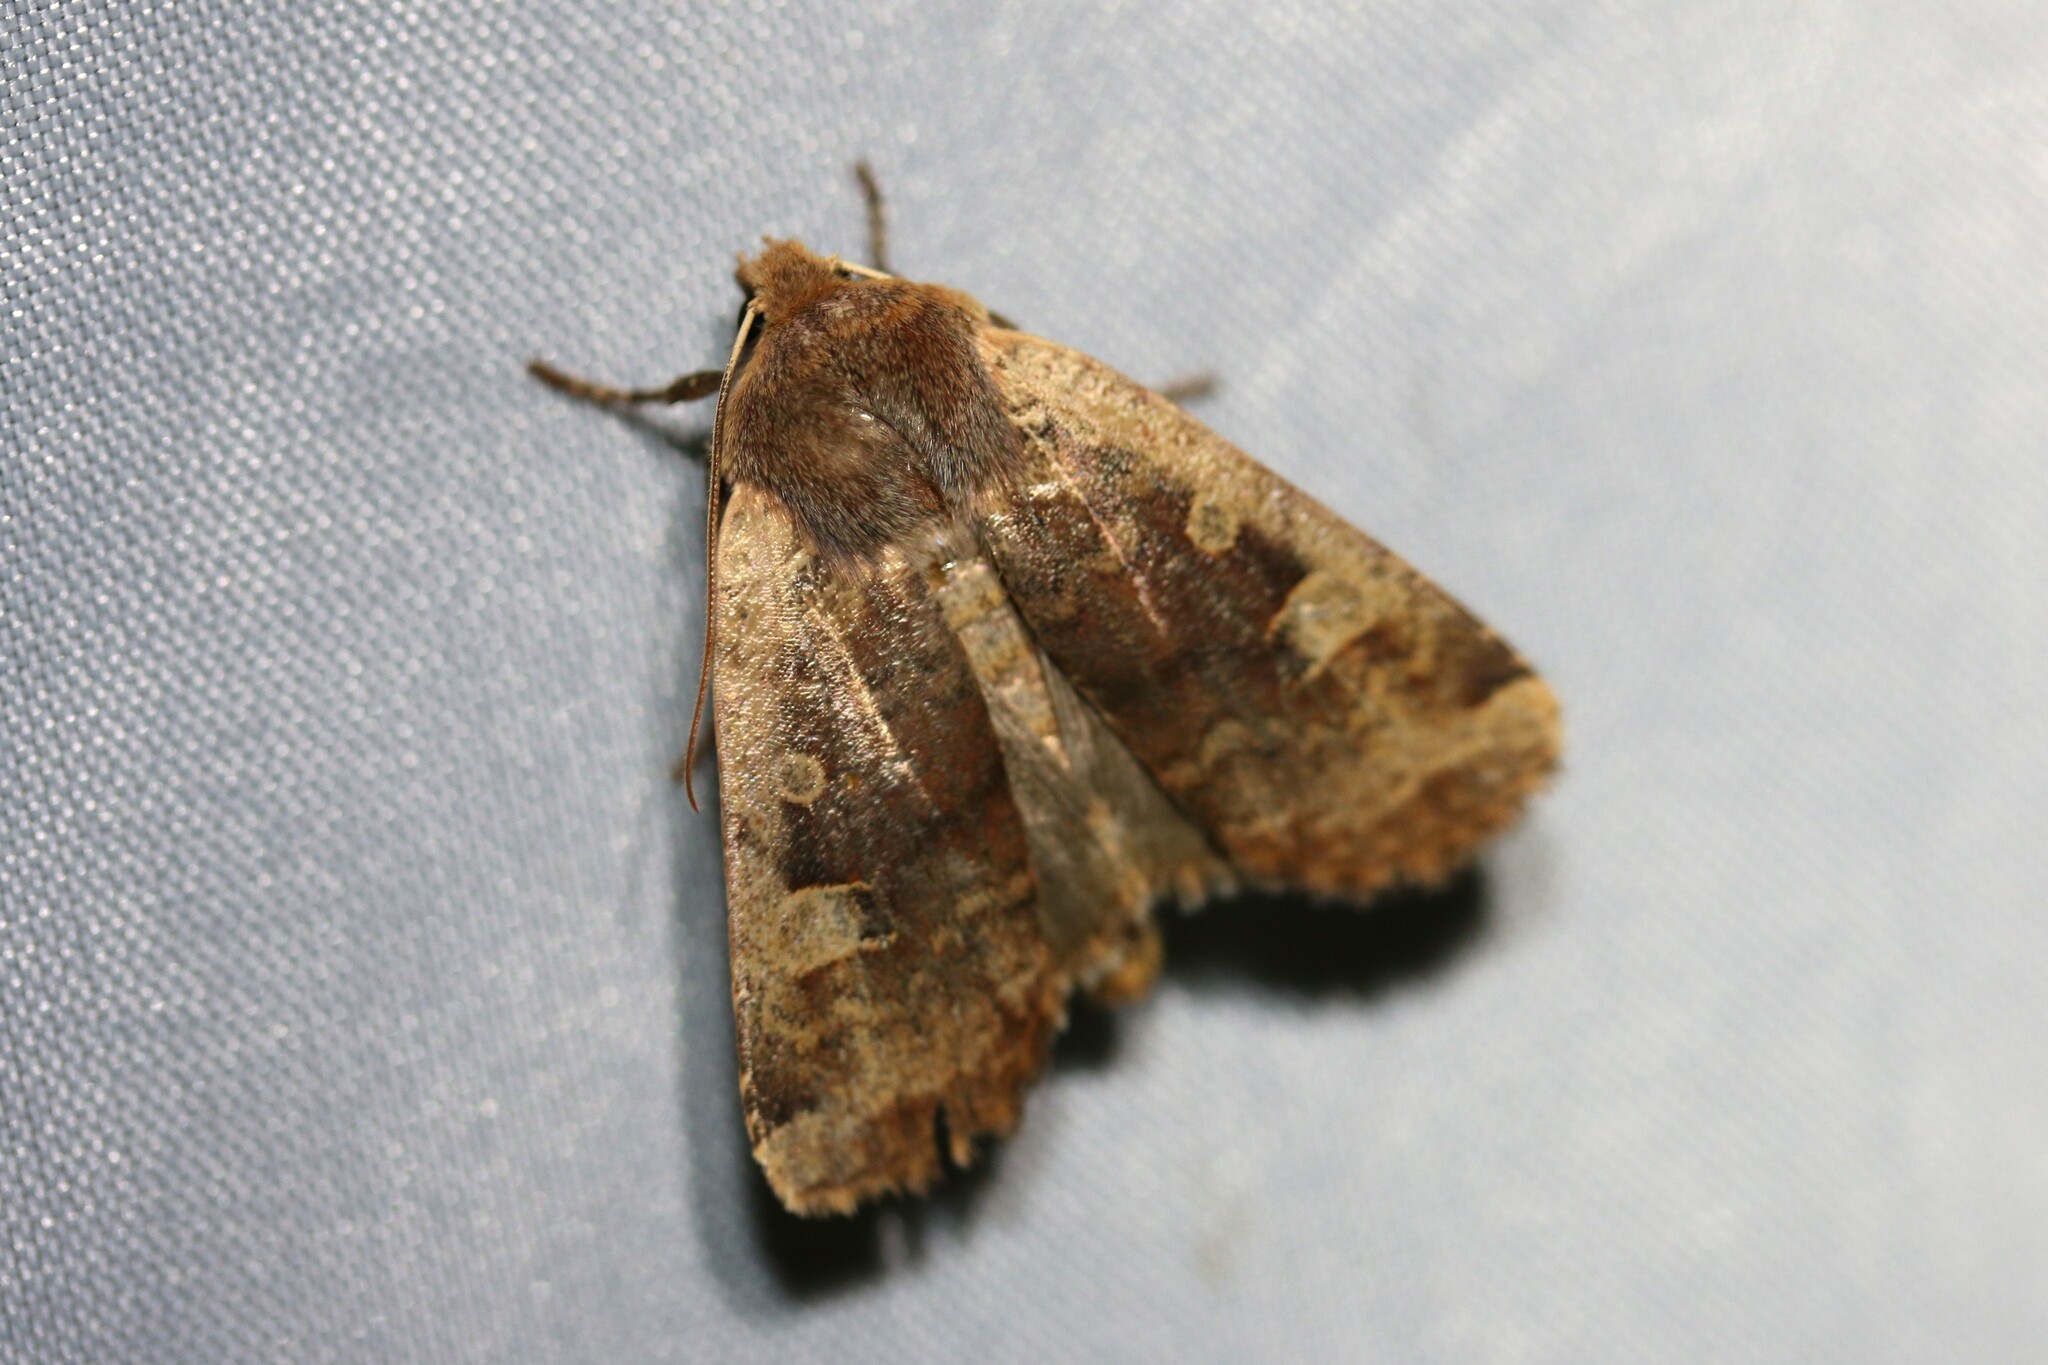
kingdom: Animalia
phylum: Arthropoda
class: Insecta
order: Lepidoptera
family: Noctuidae
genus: Conistra
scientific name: Conistra erythrocephala
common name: Red-headed chestnut
